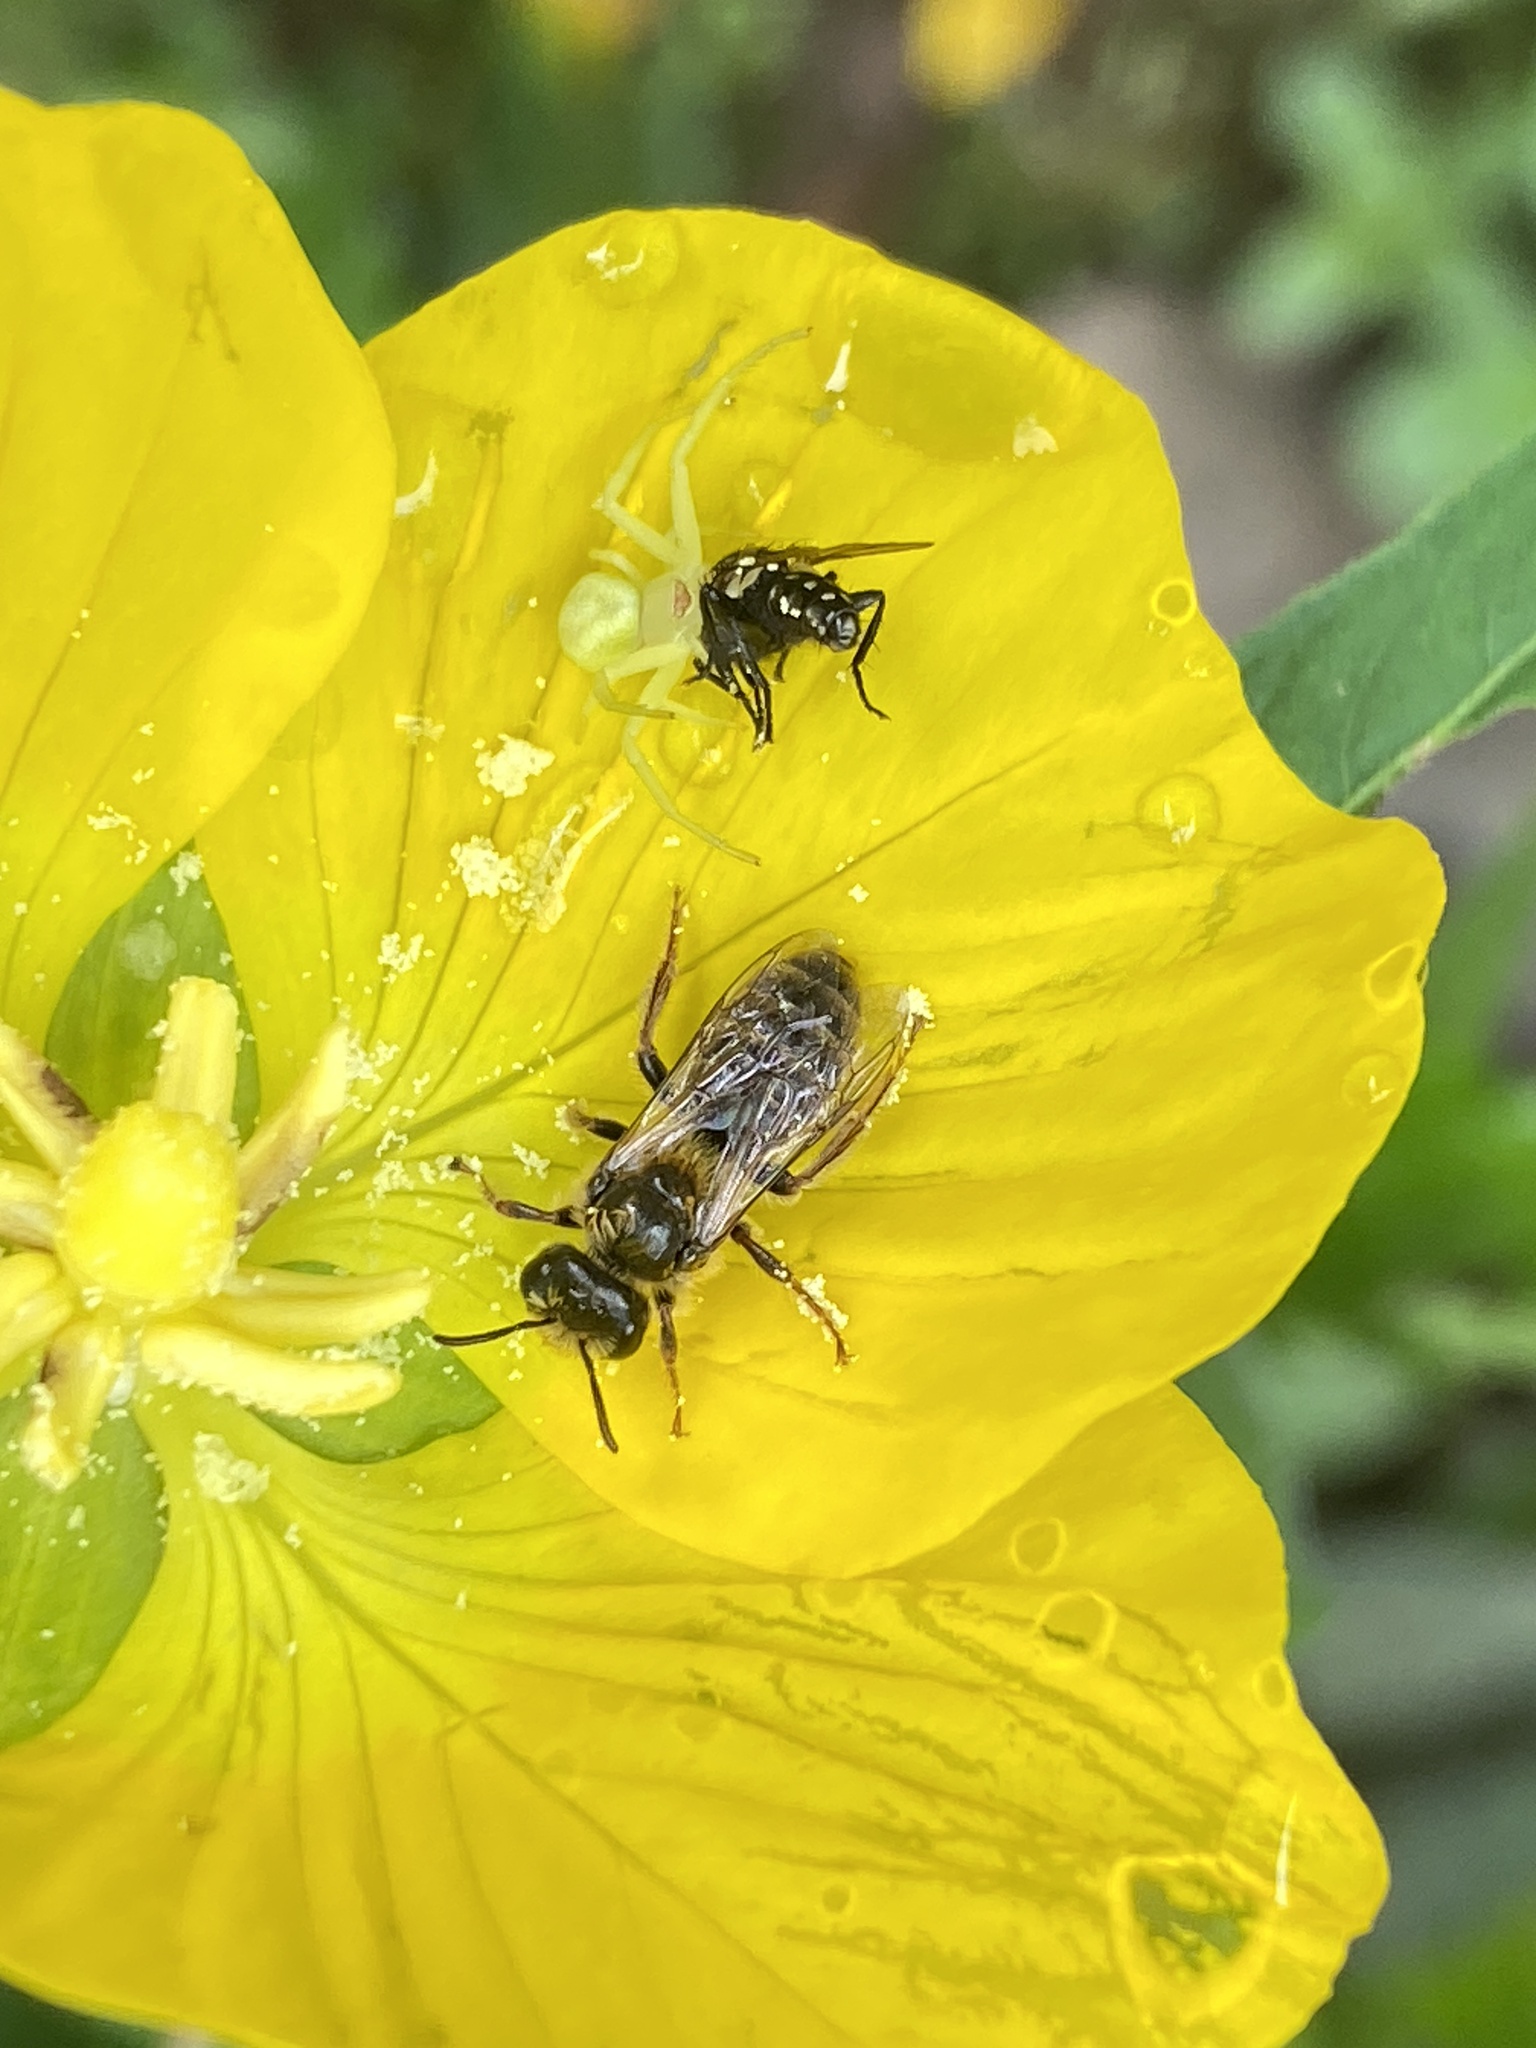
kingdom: Animalia
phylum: Arthropoda
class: Arachnida
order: Araneae
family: Thomisidae
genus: Misumenops
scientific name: Misumenops
